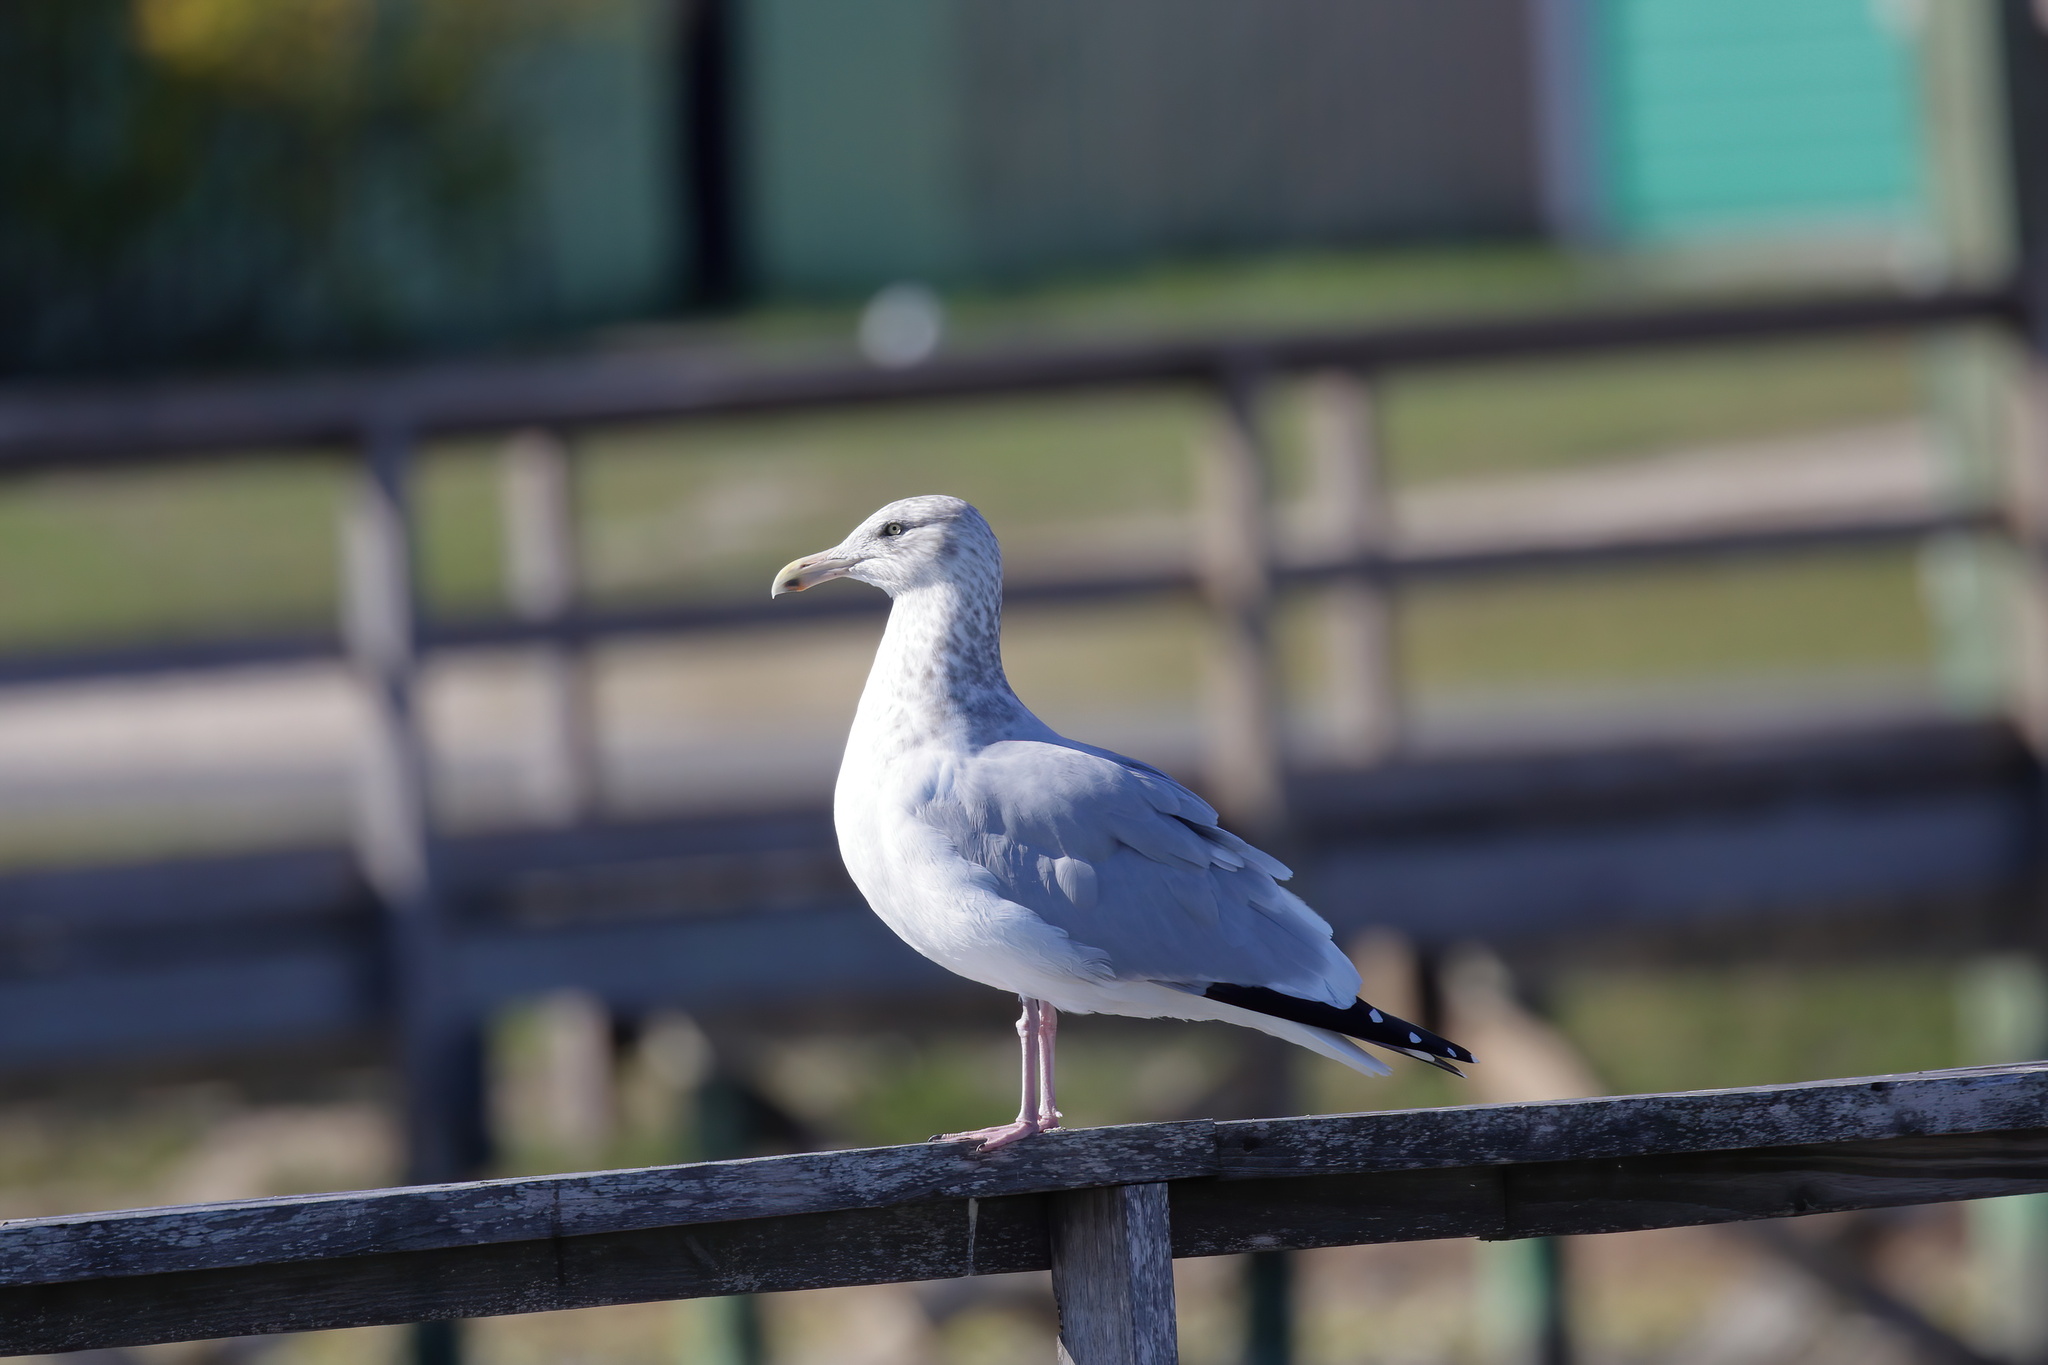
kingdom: Animalia
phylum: Chordata
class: Aves
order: Charadriiformes
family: Laridae
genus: Larus
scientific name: Larus argentatus
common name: Herring gull
